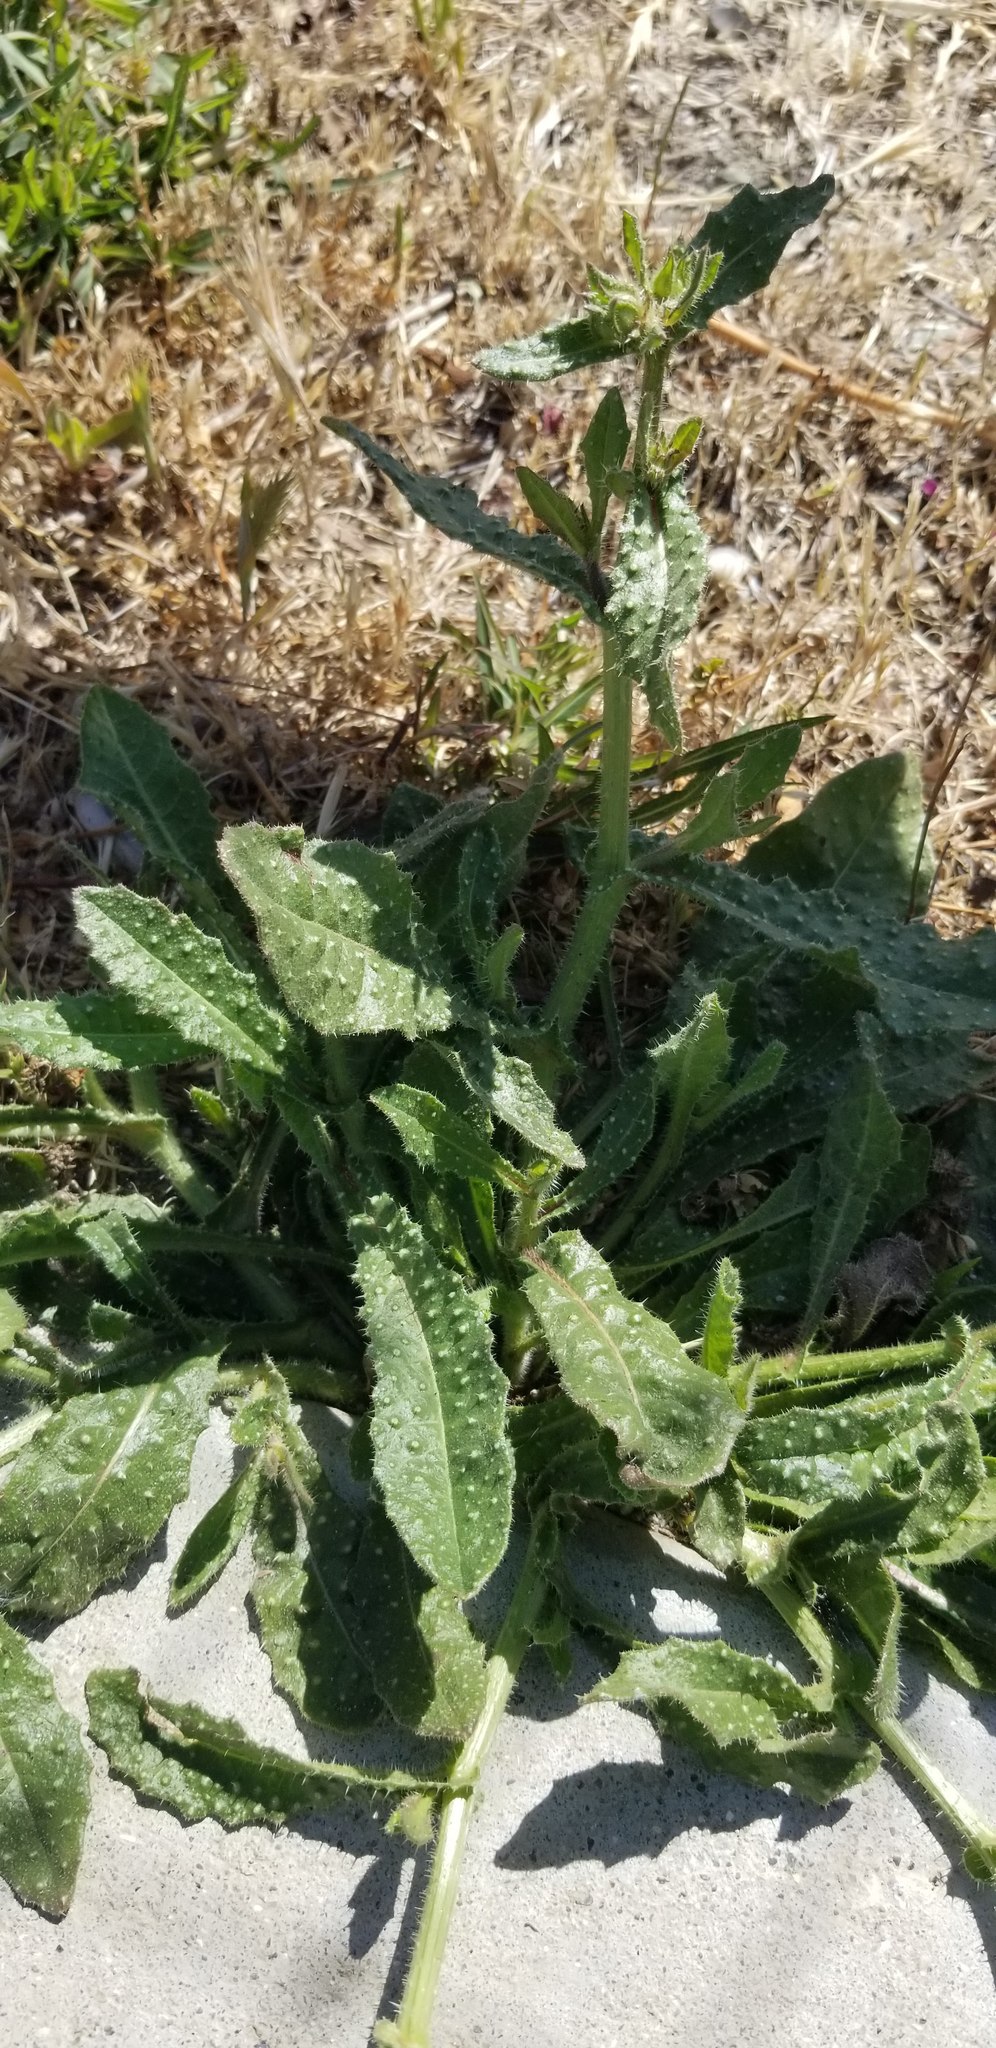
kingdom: Plantae
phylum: Tracheophyta
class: Magnoliopsida
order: Solanales
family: Solanaceae
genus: Datura
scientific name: Datura wrightii
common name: Sacred thorn-apple
